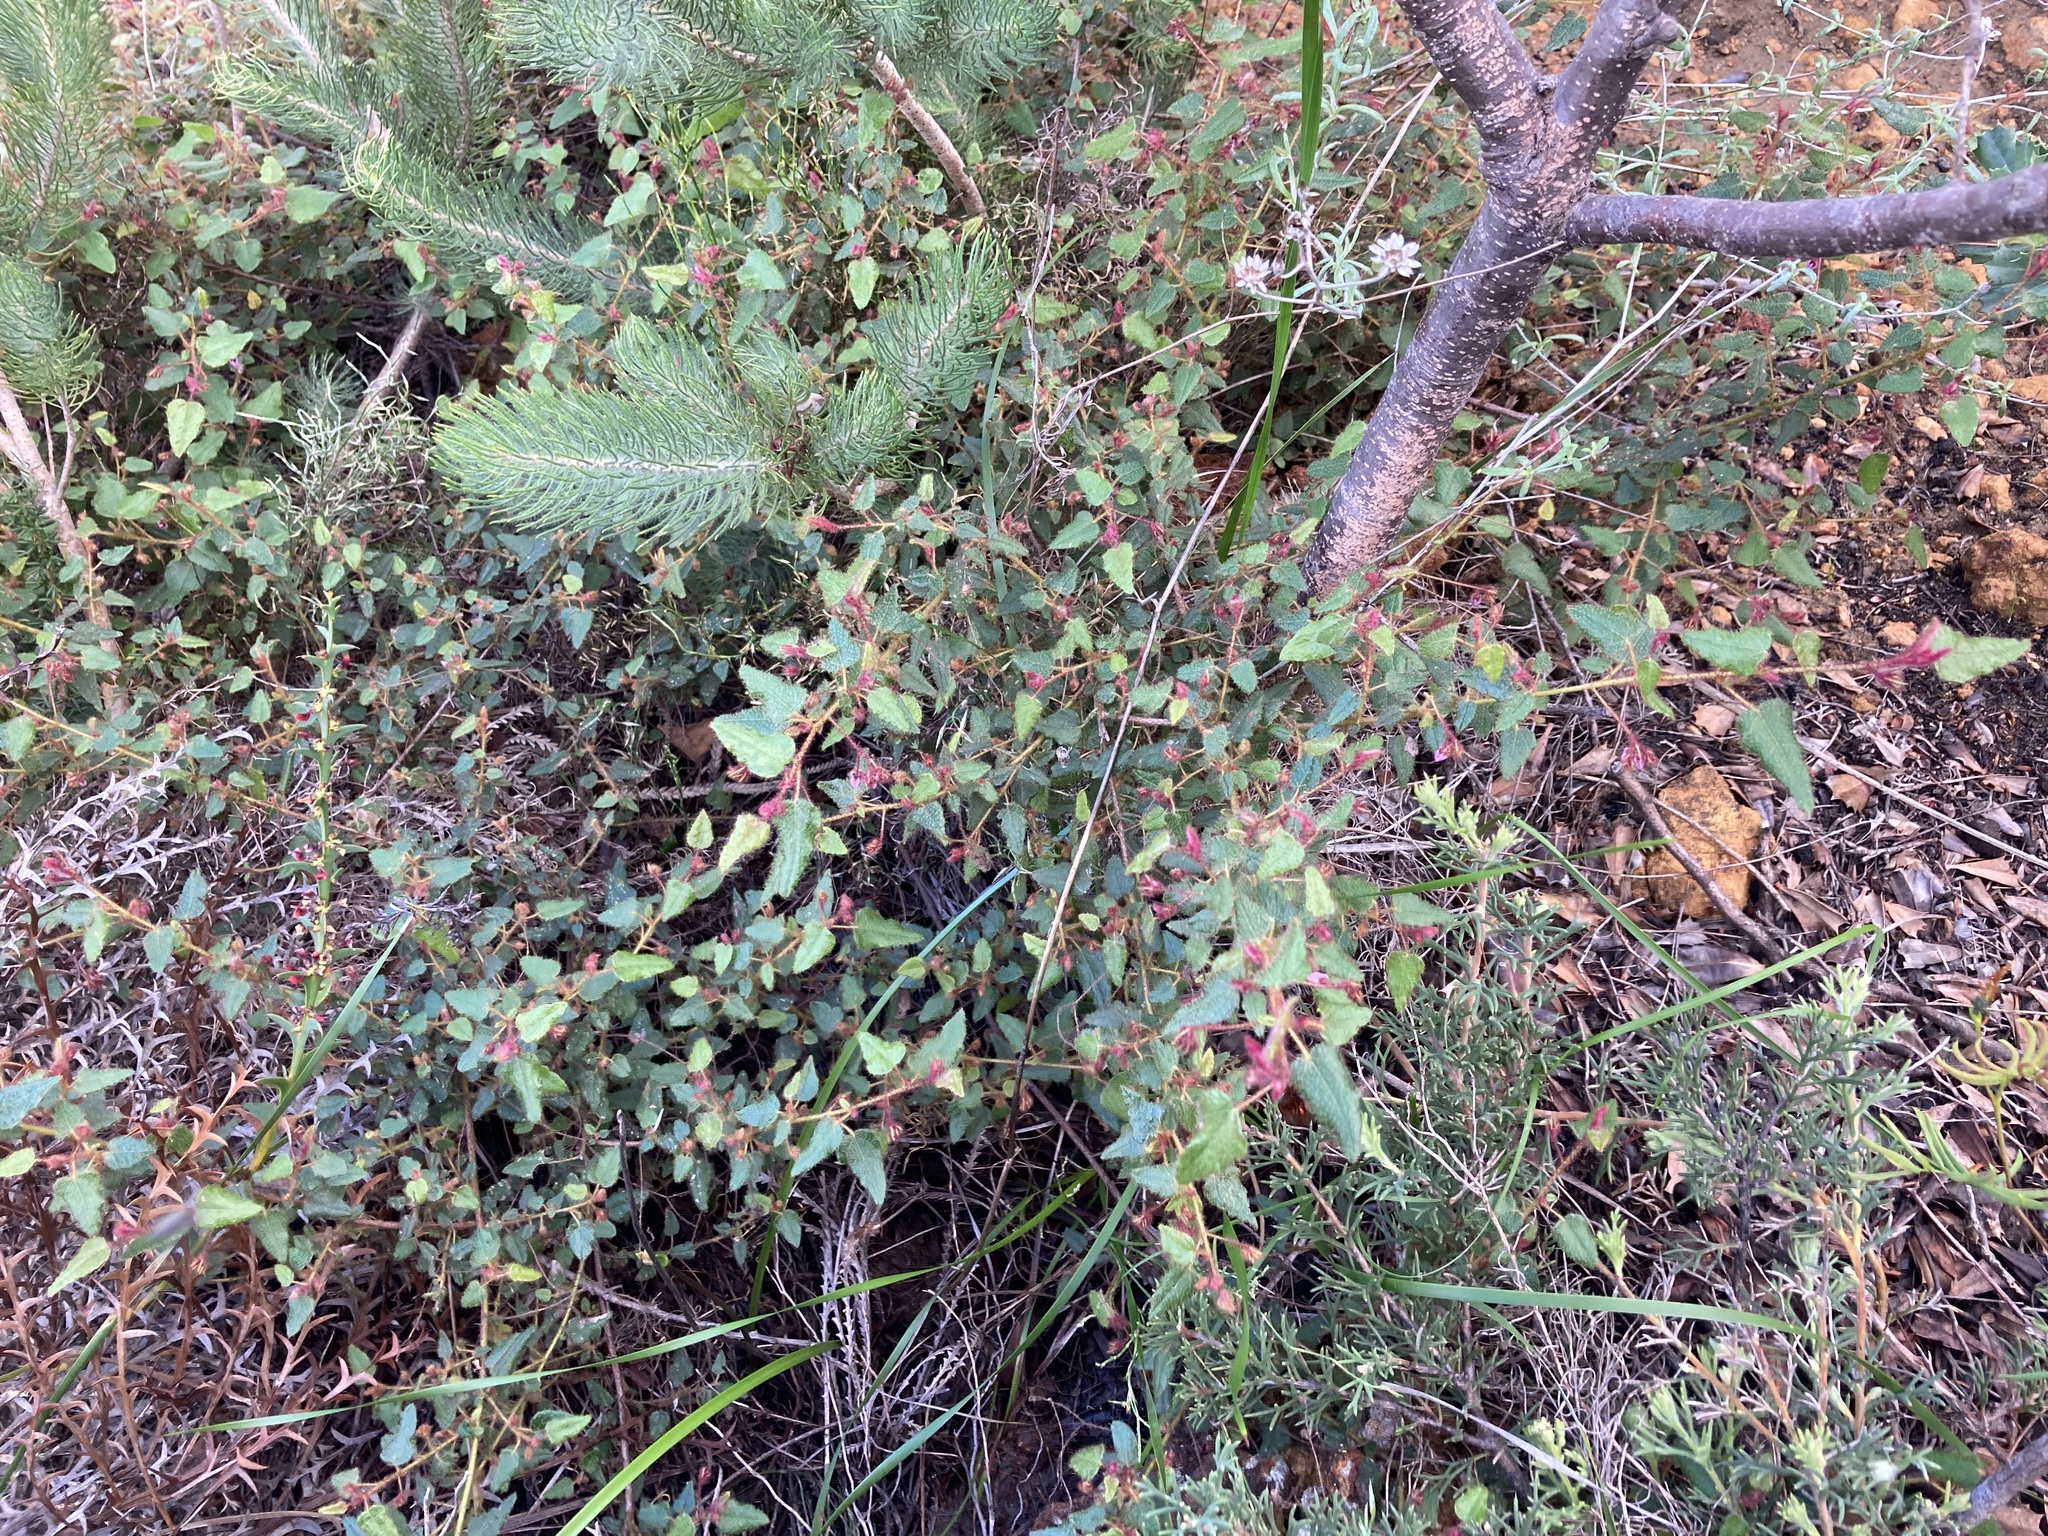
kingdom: Plantae
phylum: Tracheophyta
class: Magnoliopsida
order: Malvales
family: Malvaceae
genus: Lasiopetalum
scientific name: Lasiopetalum rutilans
